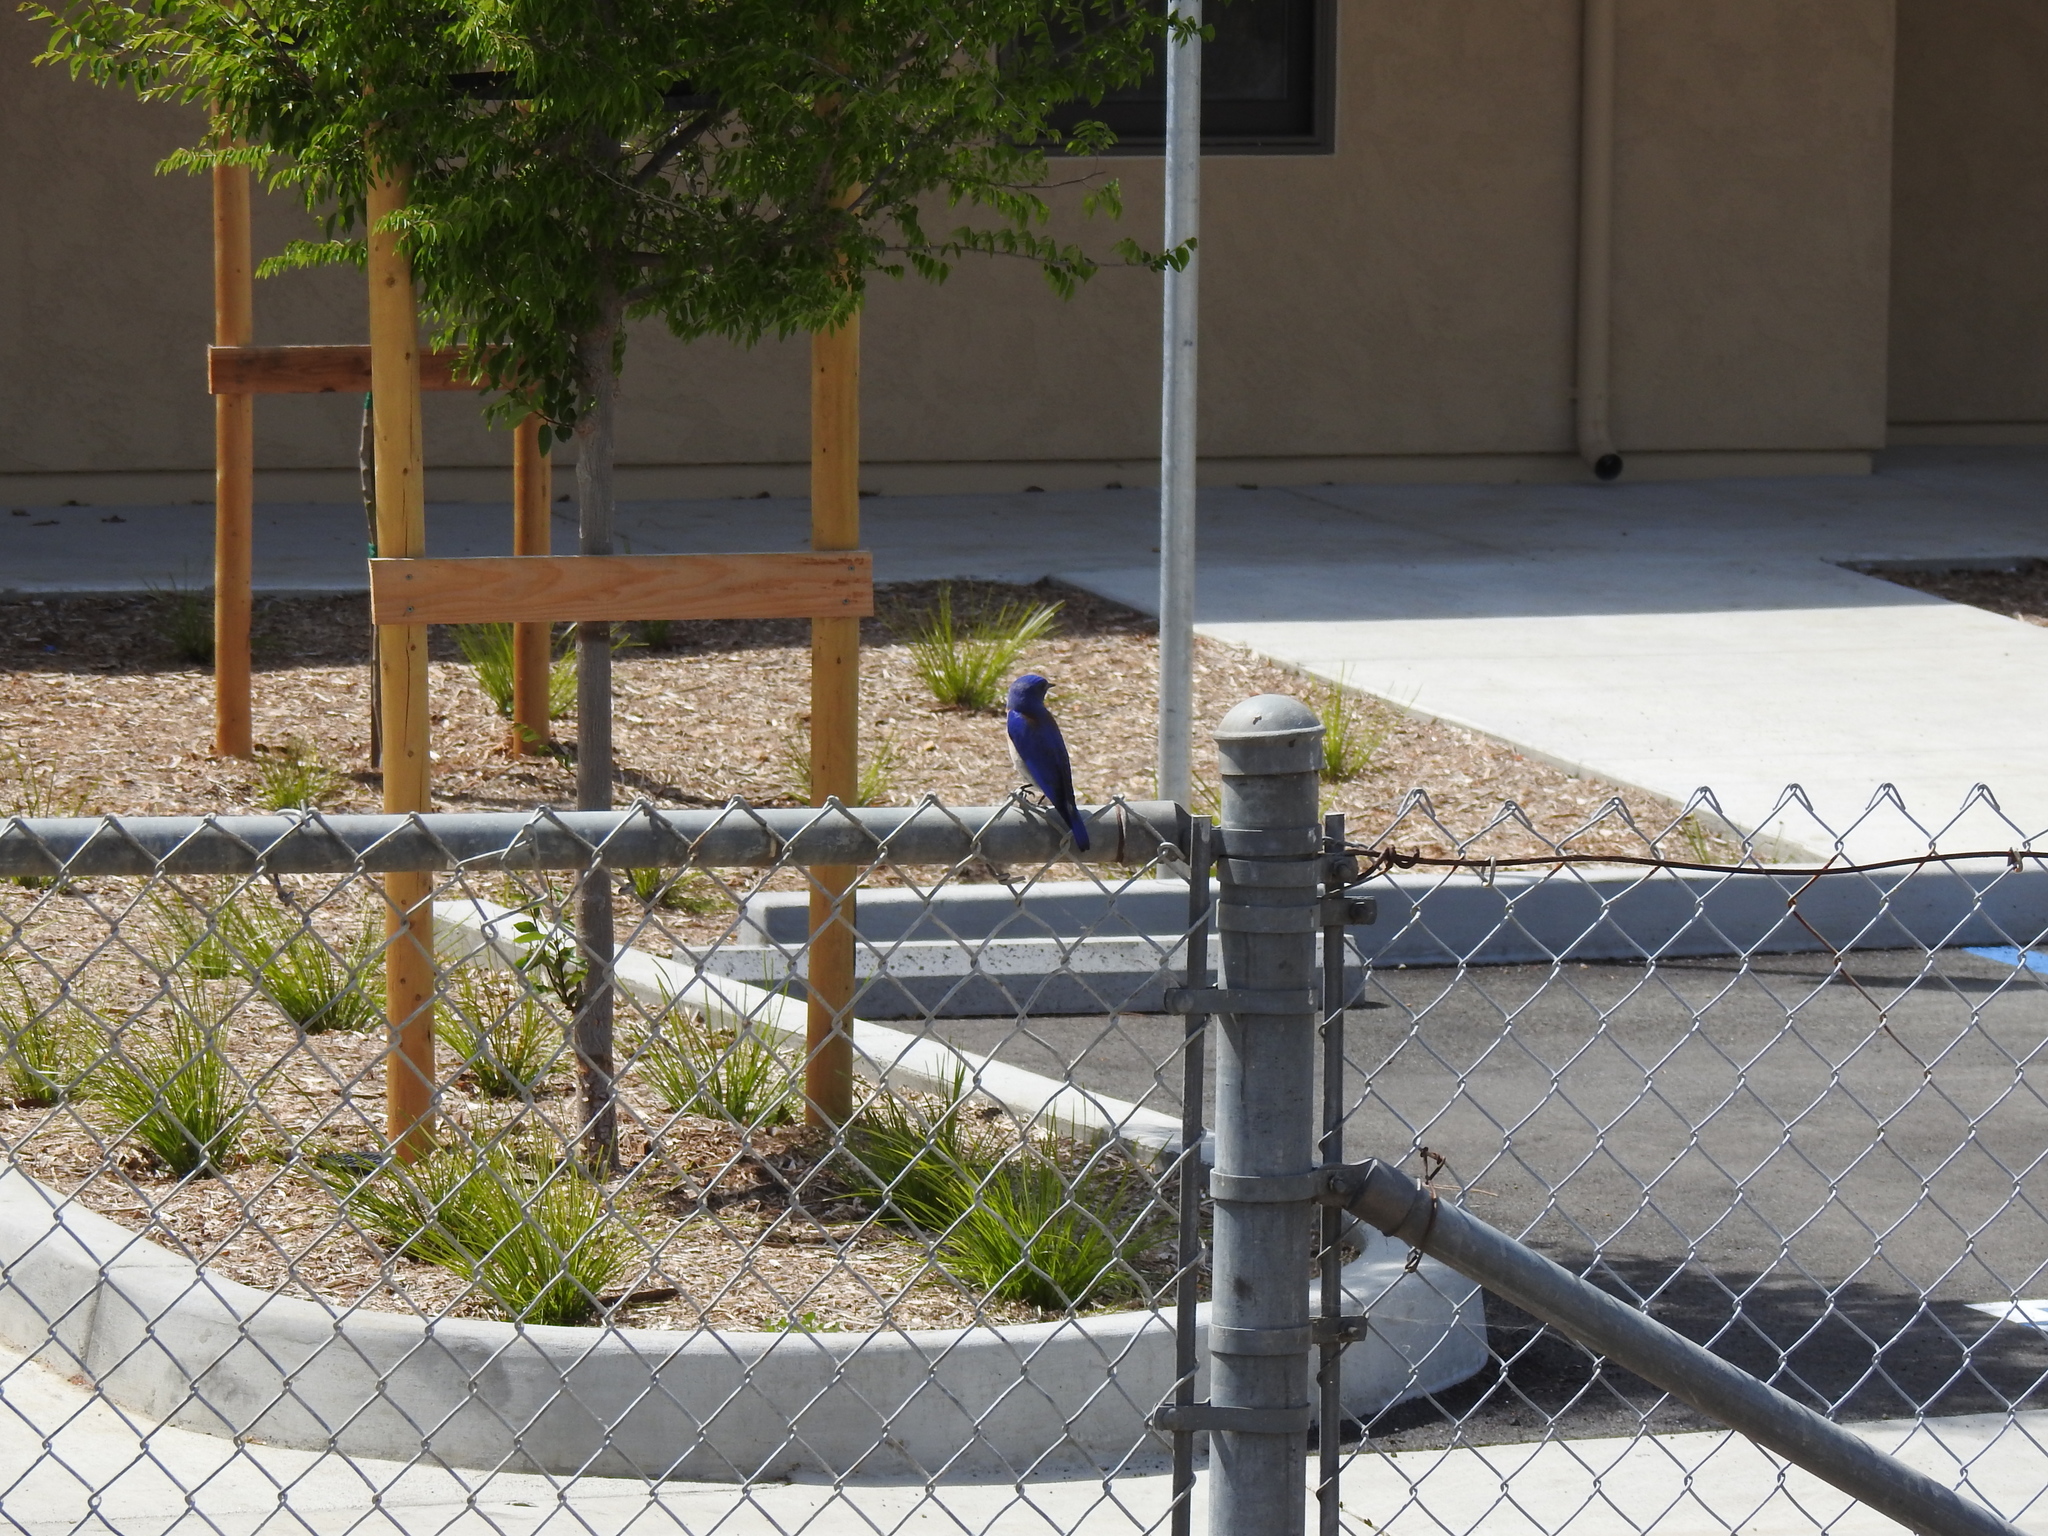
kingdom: Animalia
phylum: Chordata
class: Aves
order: Passeriformes
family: Turdidae
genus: Sialia
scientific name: Sialia mexicana
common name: Western bluebird
